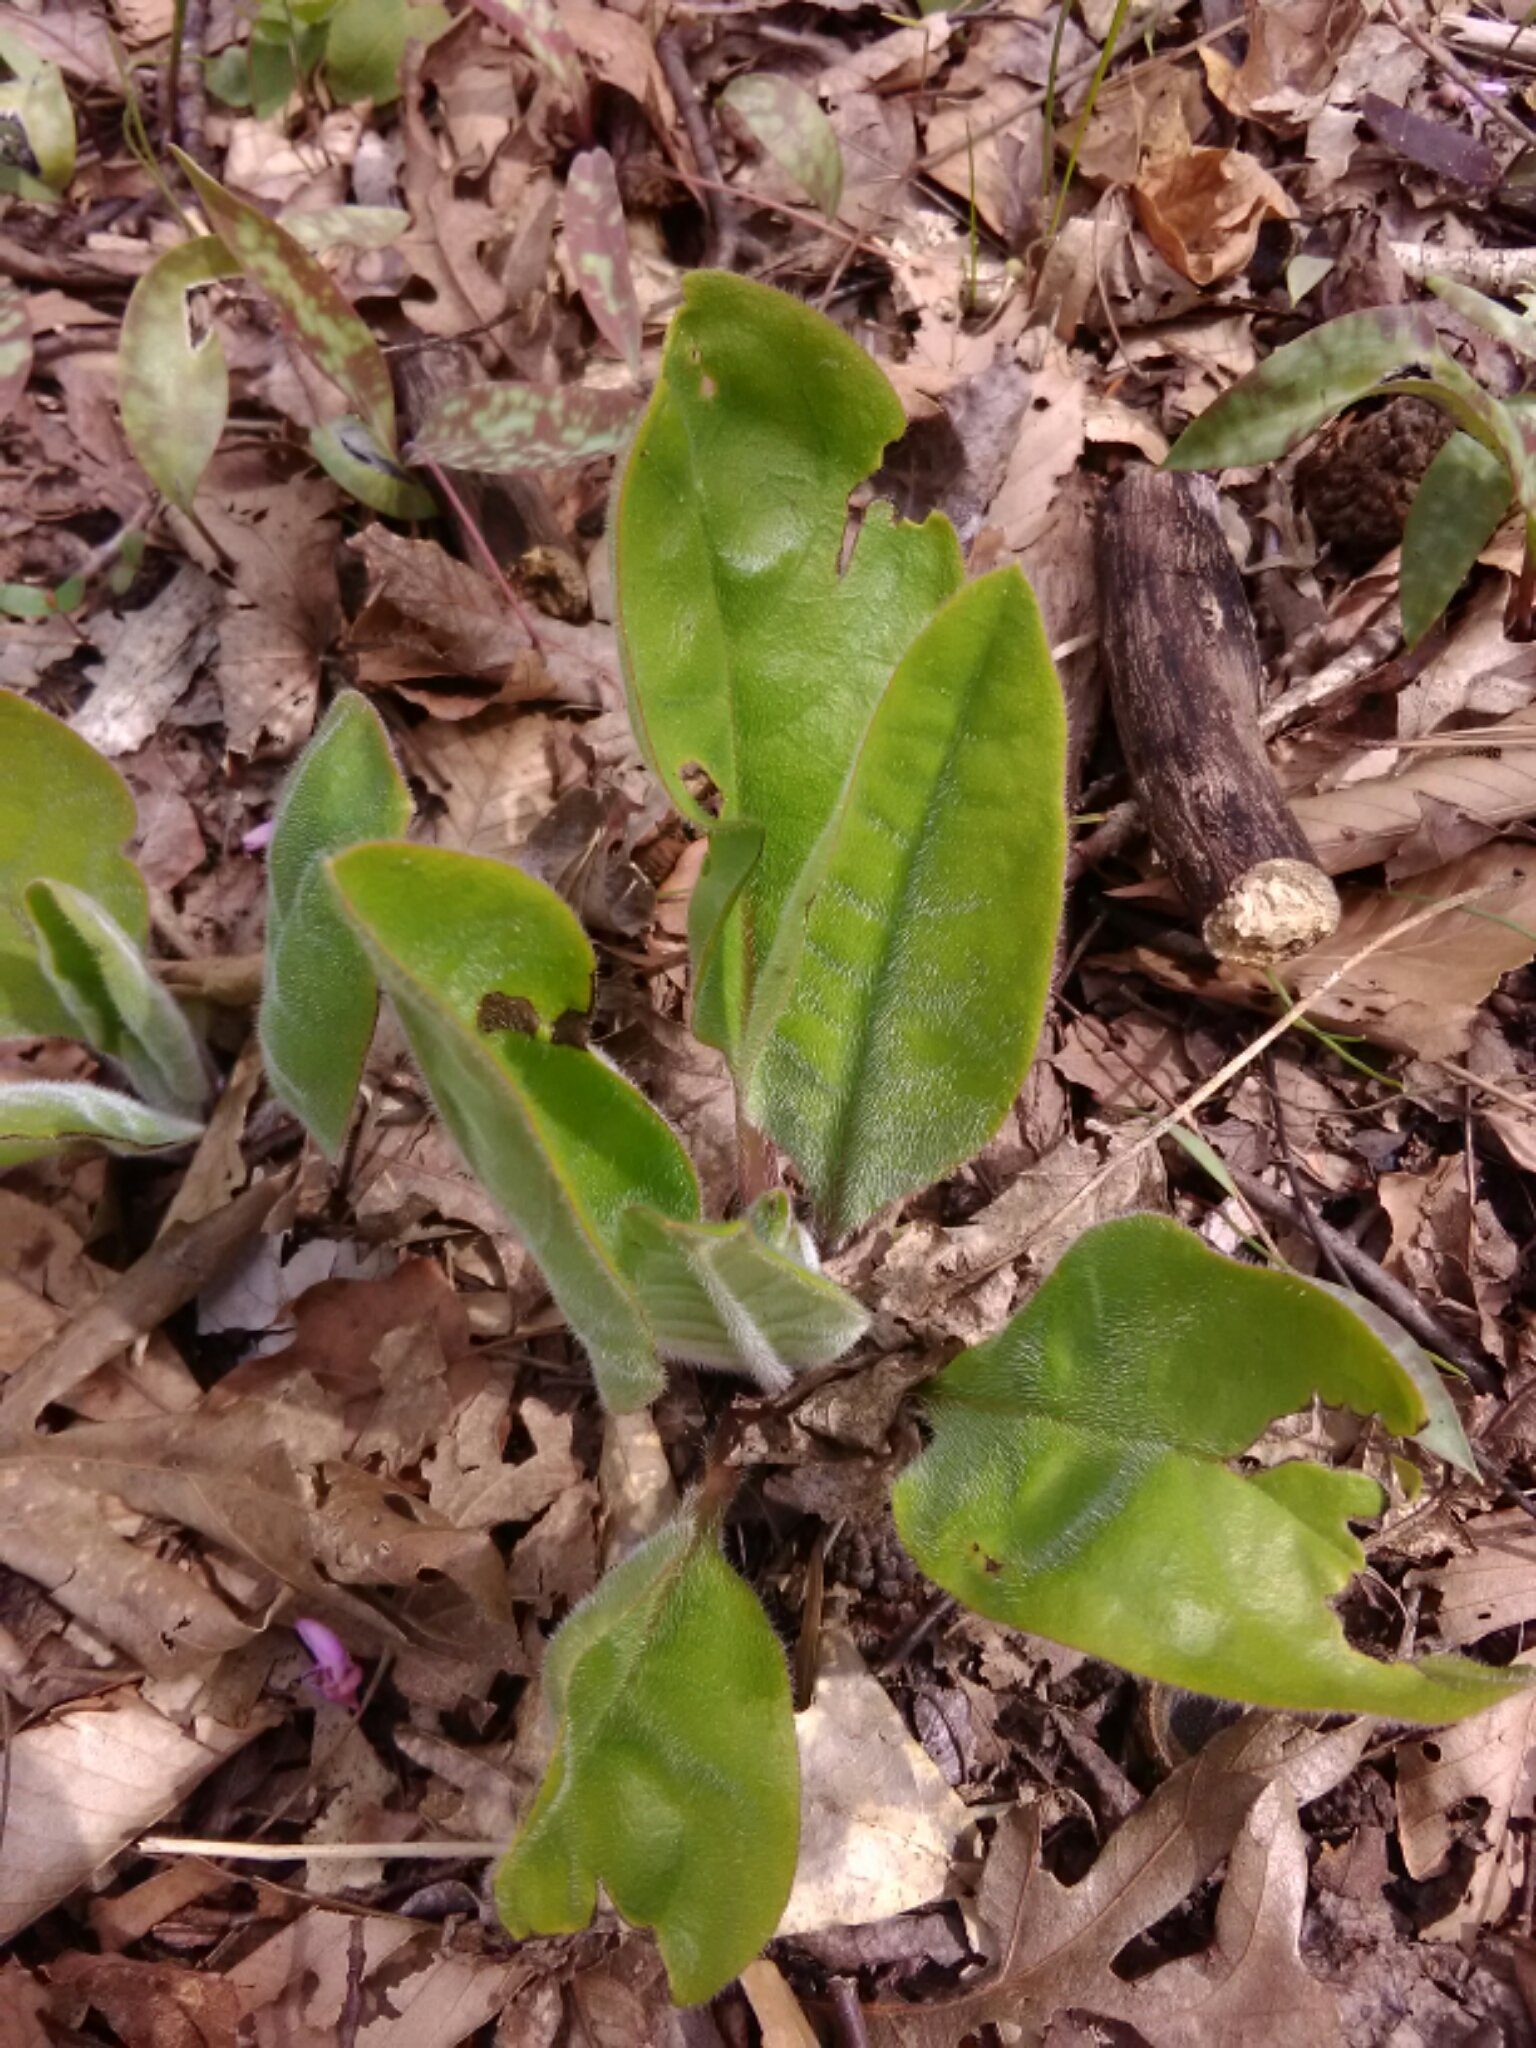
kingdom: Plantae
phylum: Tracheophyta
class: Magnoliopsida
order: Boraginales
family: Boraginaceae
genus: Andersonglossum
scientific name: Andersonglossum virginianum
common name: Wild comfrey
